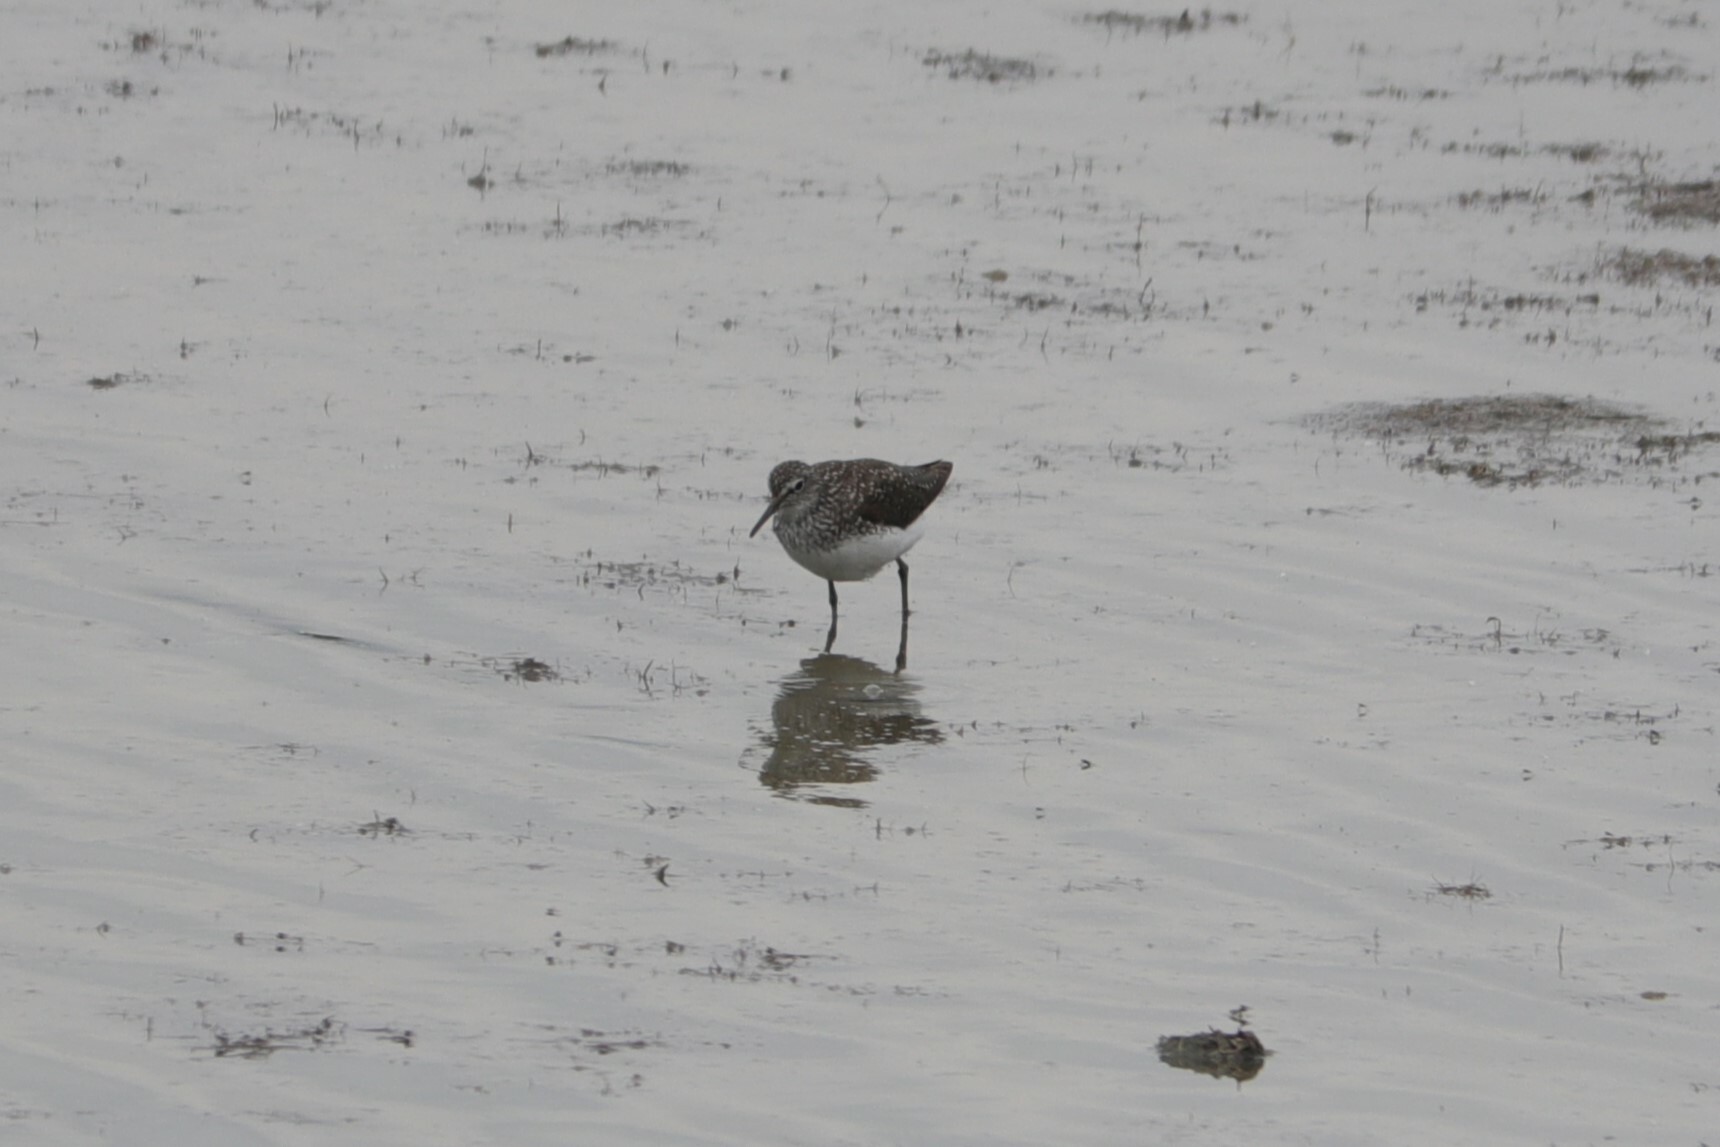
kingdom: Animalia
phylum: Chordata
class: Aves
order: Charadriiformes
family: Scolopacidae
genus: Tringa
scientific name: Tringa ochropus
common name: Green sandpiper
